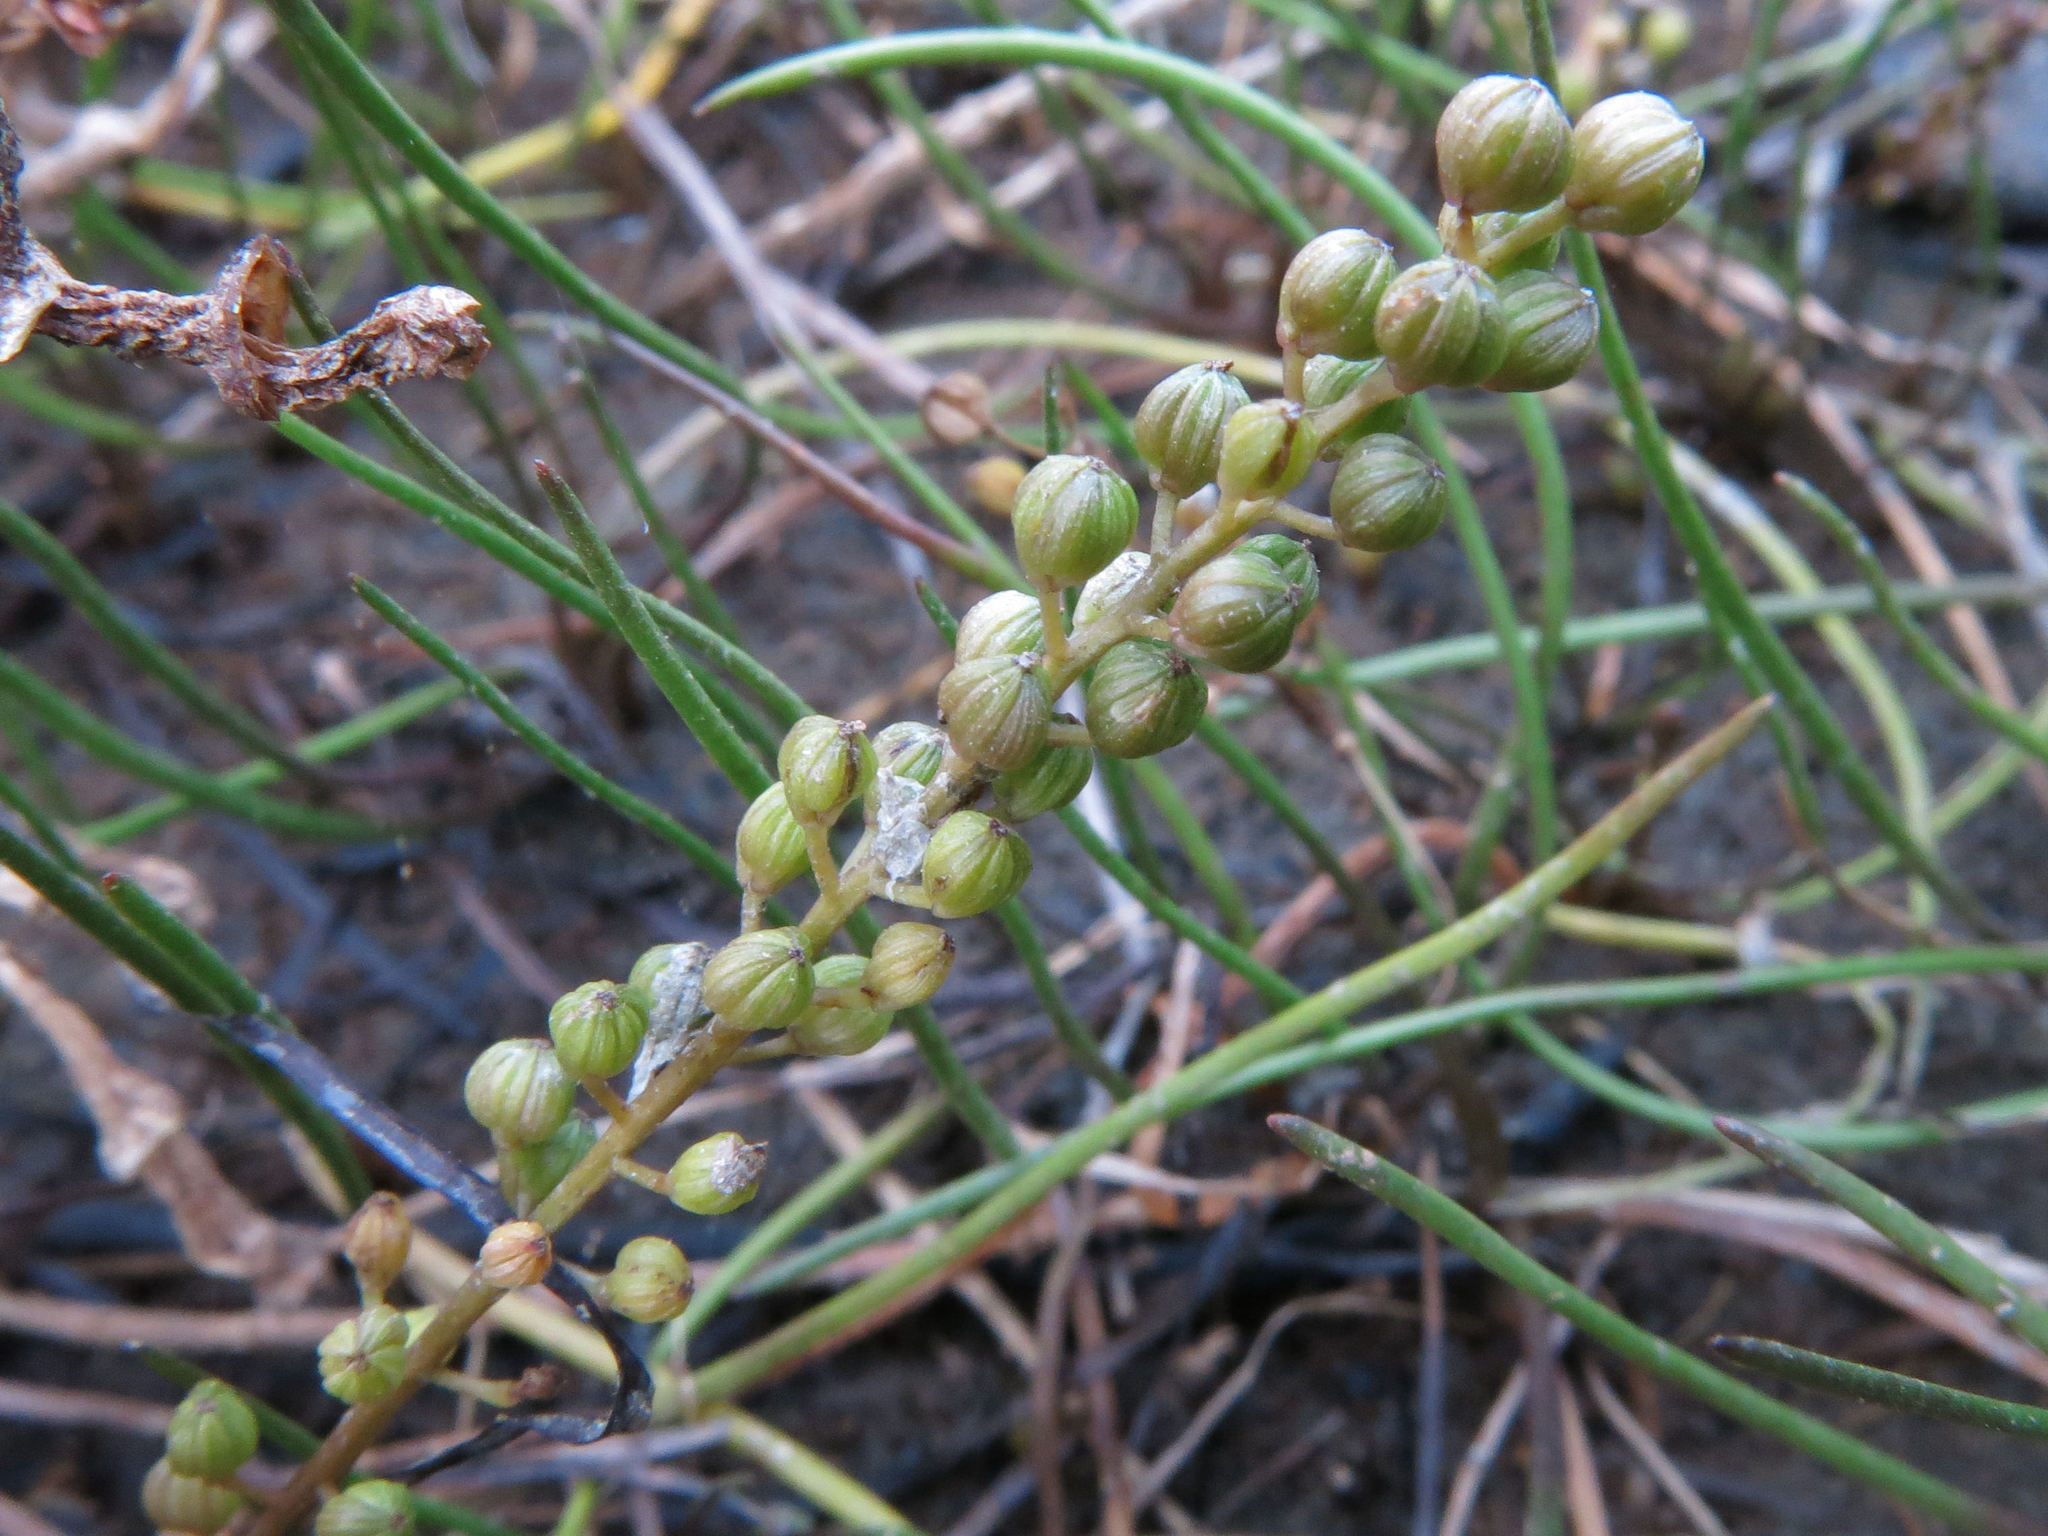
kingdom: Plantae
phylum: Tracheophyta
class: Liliopsida
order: Alismatales
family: Juncaginaceae
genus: Triglochin
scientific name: Triglochin striata
